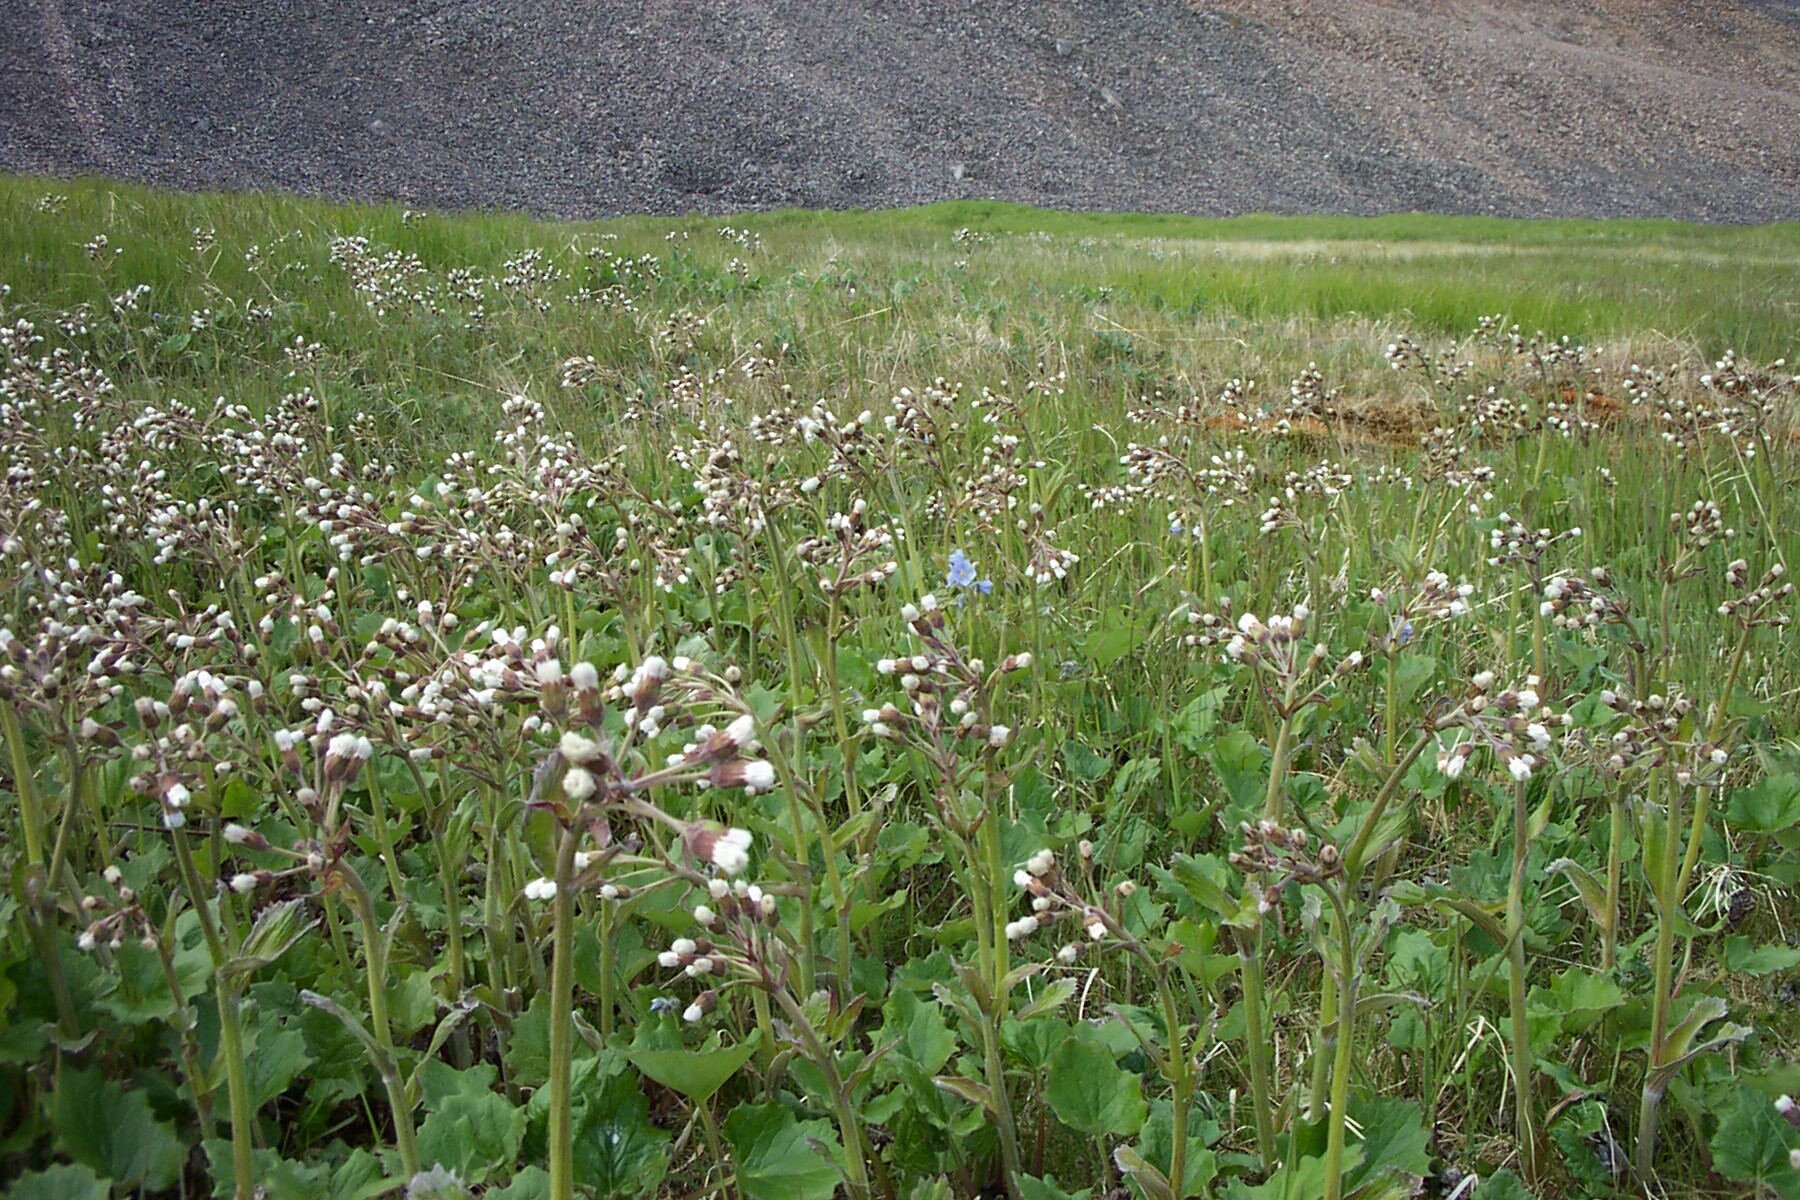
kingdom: Plantae
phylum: Tracheophyta
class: Magnoliopsida
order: Asterales
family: Asteraceae
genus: Petasites
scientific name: Petasites frigidus
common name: Arctic butterbur
